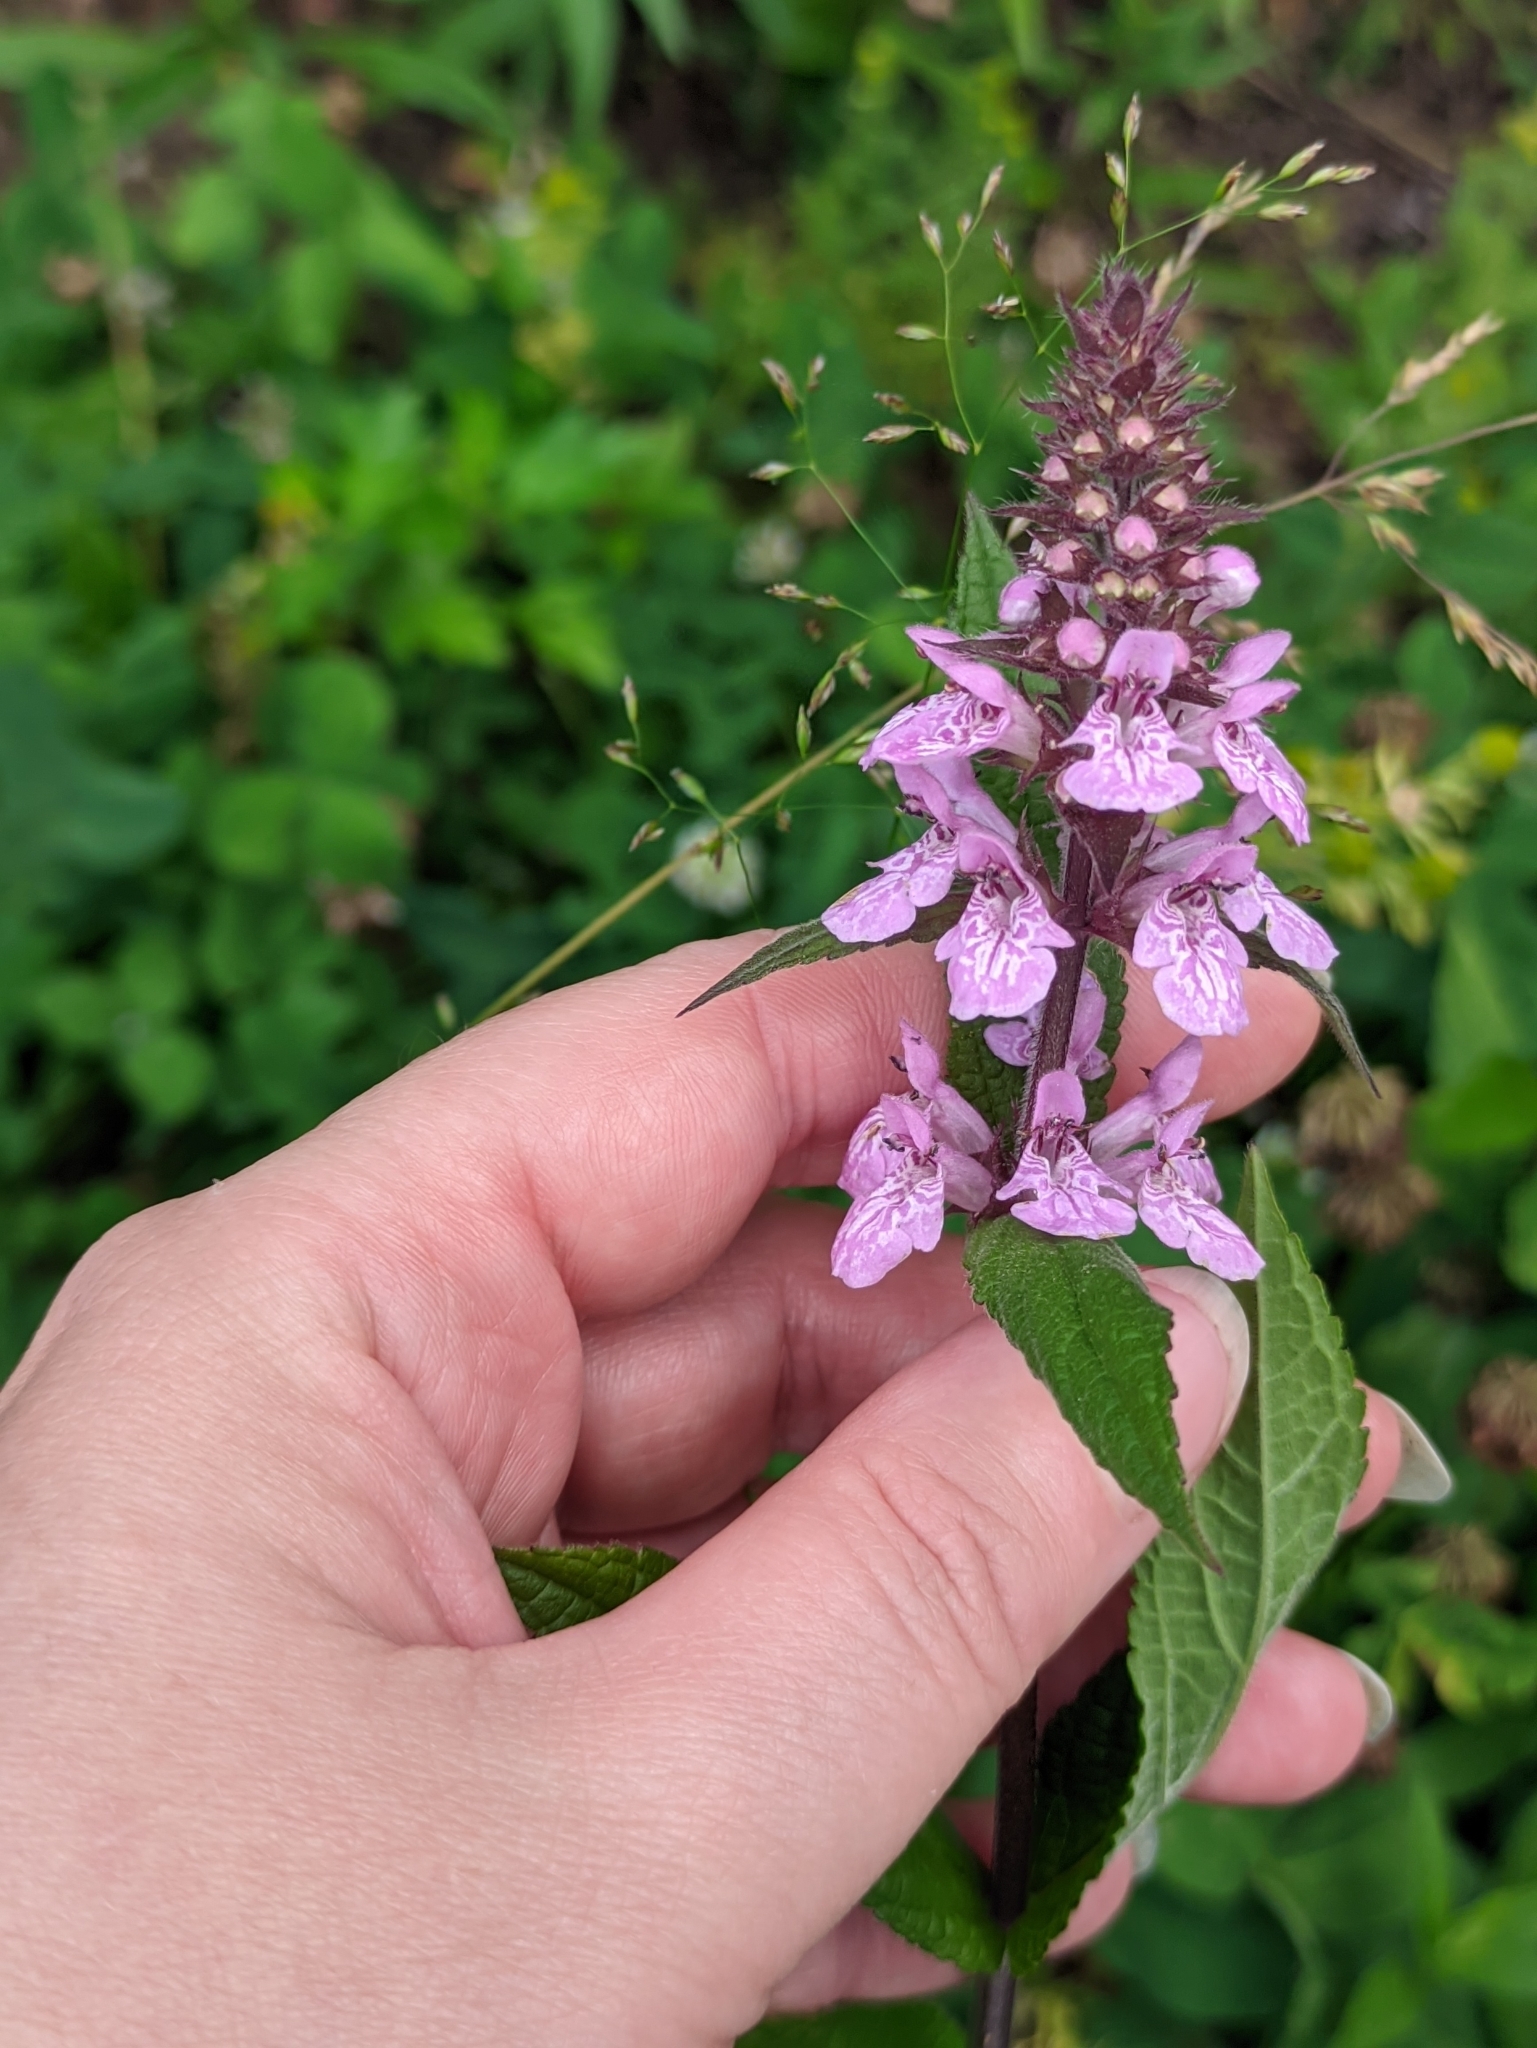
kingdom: Plantae
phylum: Tracheophyta
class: Magnoliopsida
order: Lamiales
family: Lamiaceae
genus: Stachys
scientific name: Stachys palustris
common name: Marsh woundwort
